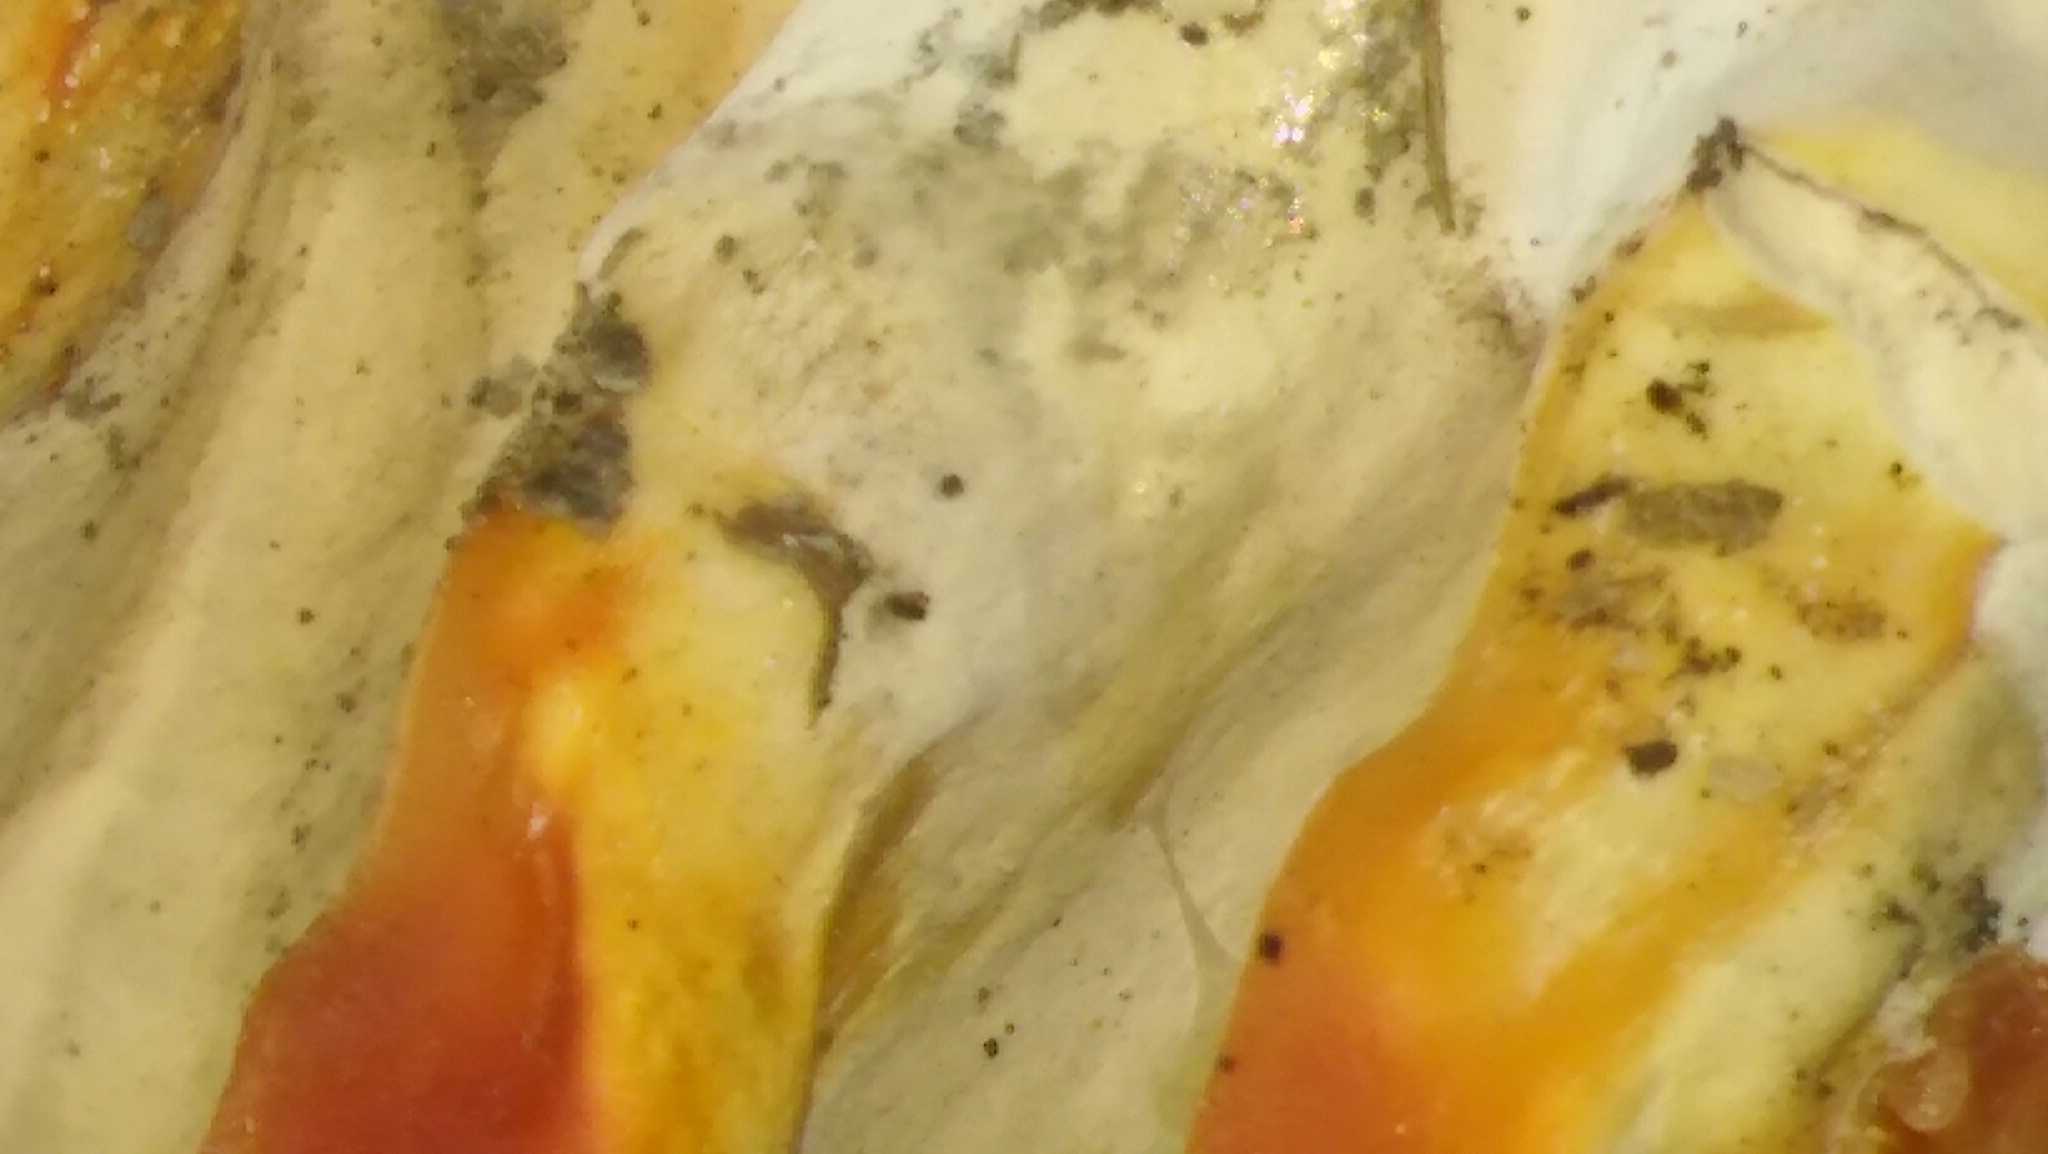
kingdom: Fungi
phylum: Basidiomycota
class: Agaricomycetes
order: Polyporales
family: Laetiporaceae
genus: Laetiporus
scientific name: Laetiporus sulphureus
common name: Chicken of the woods
